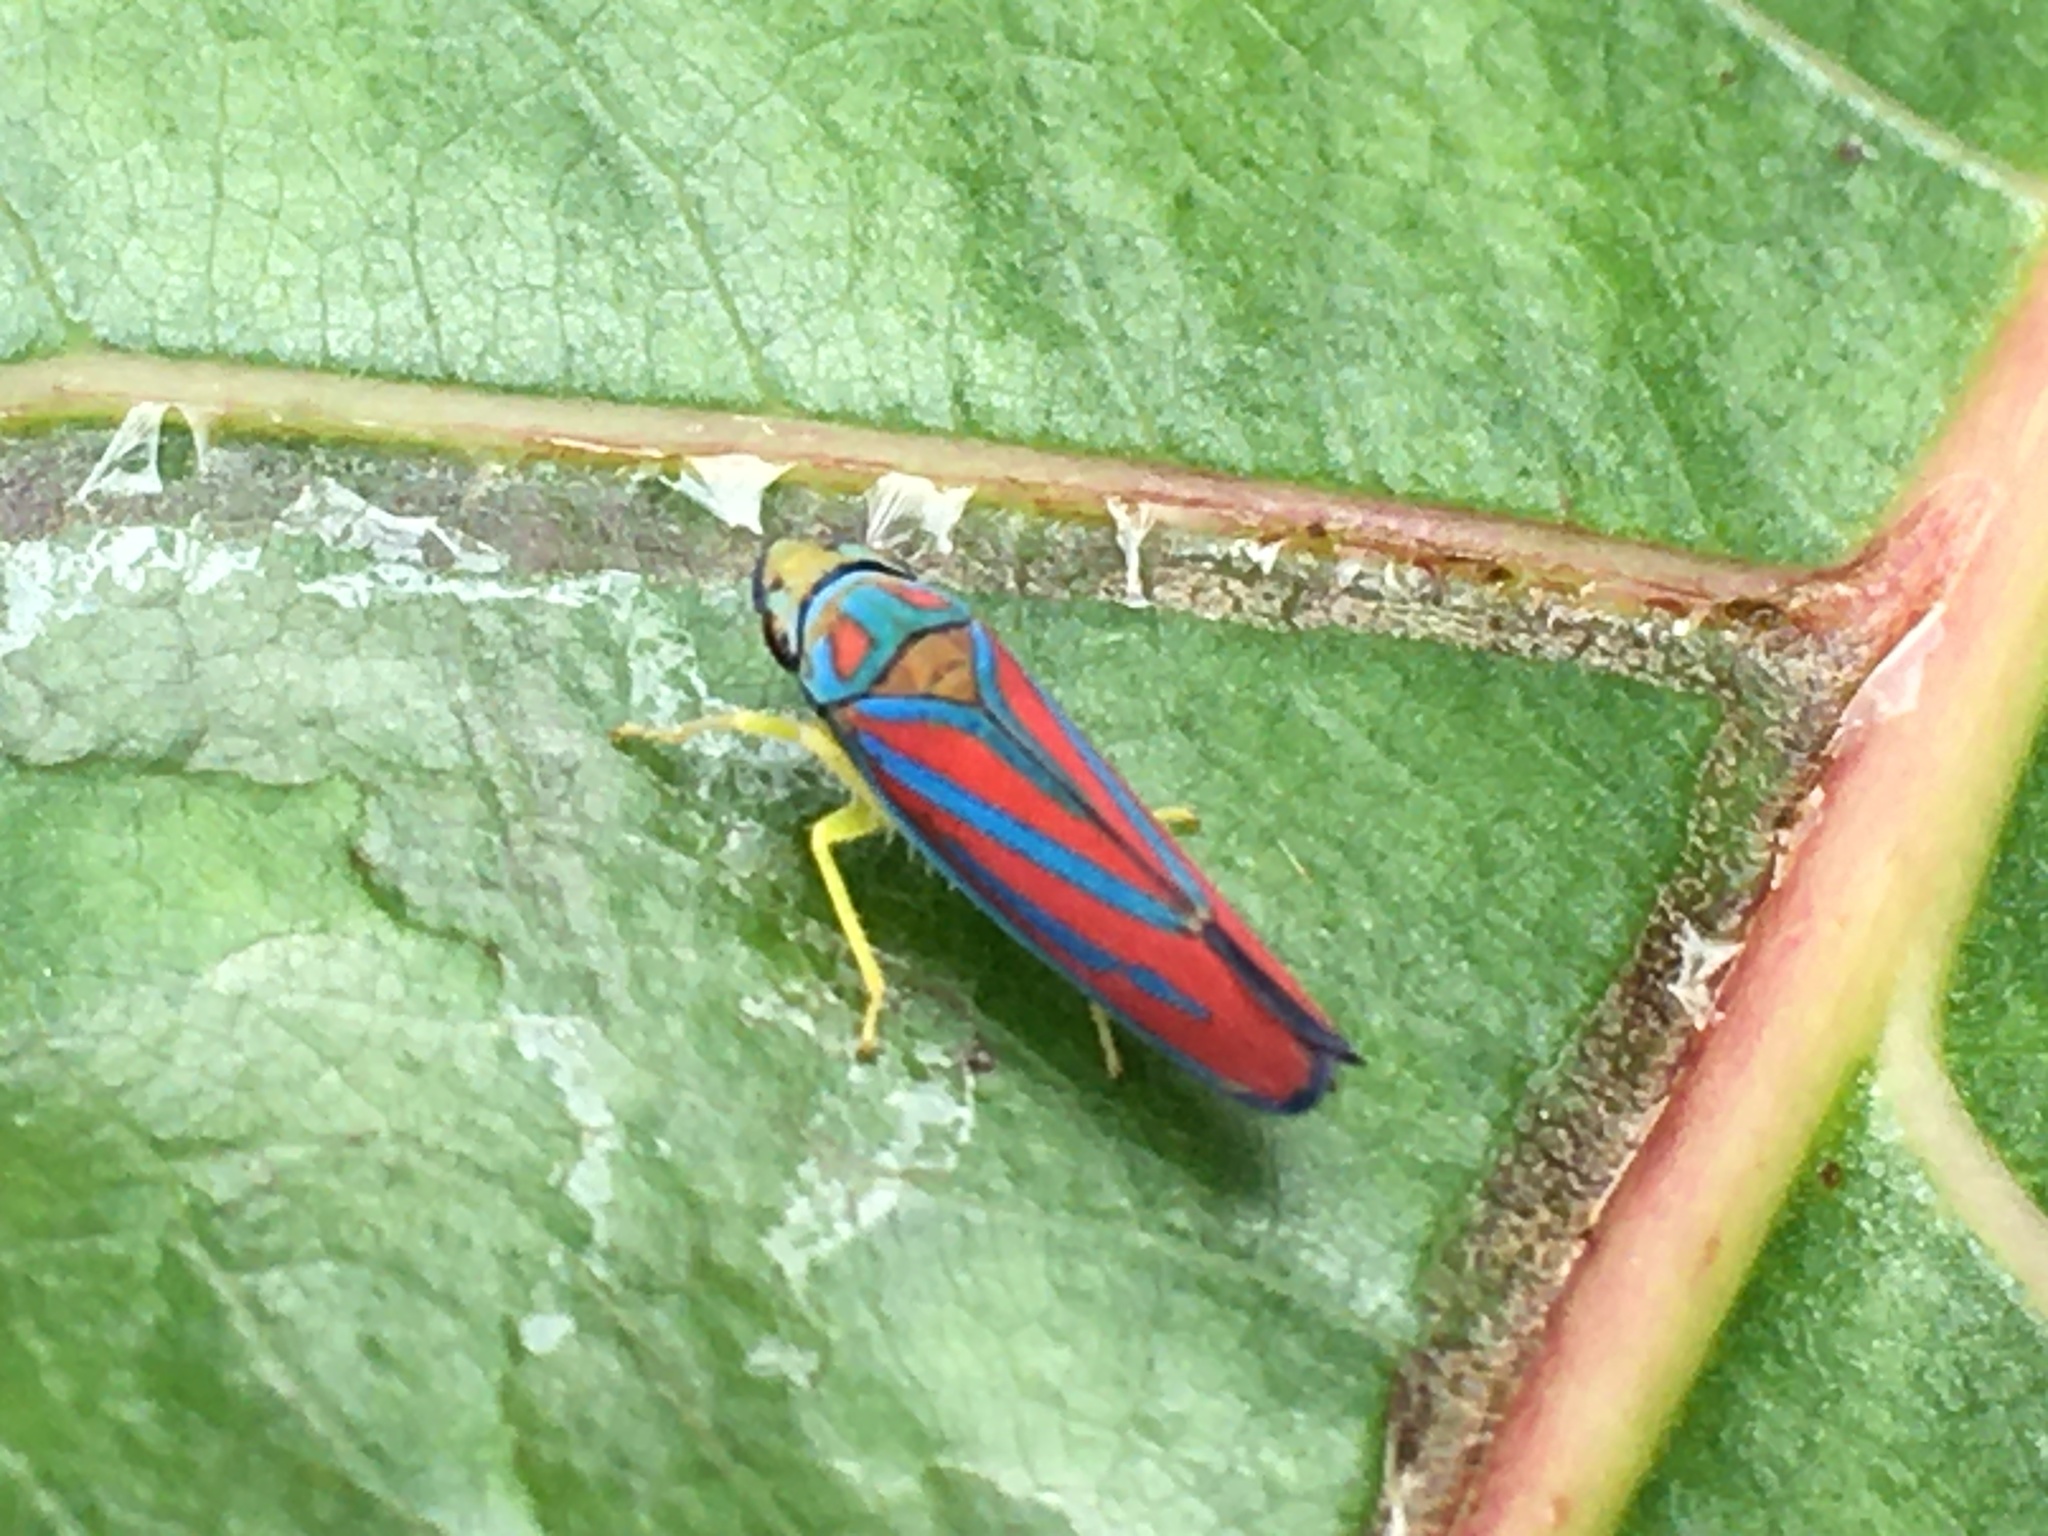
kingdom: Animalia
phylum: Arthropoda
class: Insecta
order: Hemiptera
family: Cicadellidae
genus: Graphocephala
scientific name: Graphocephala coccinea
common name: Candy-striped leafhopper
